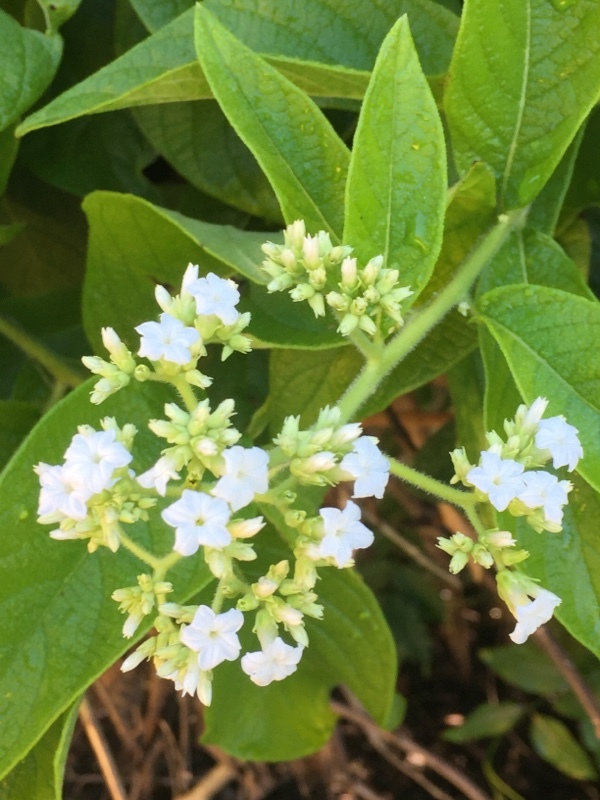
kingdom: Plantae
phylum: Tracheophyta
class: Magnoliopsida
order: Boraginales
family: Heliotropiaceae
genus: Heliotropium
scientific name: Heliotropium verdcourtii
